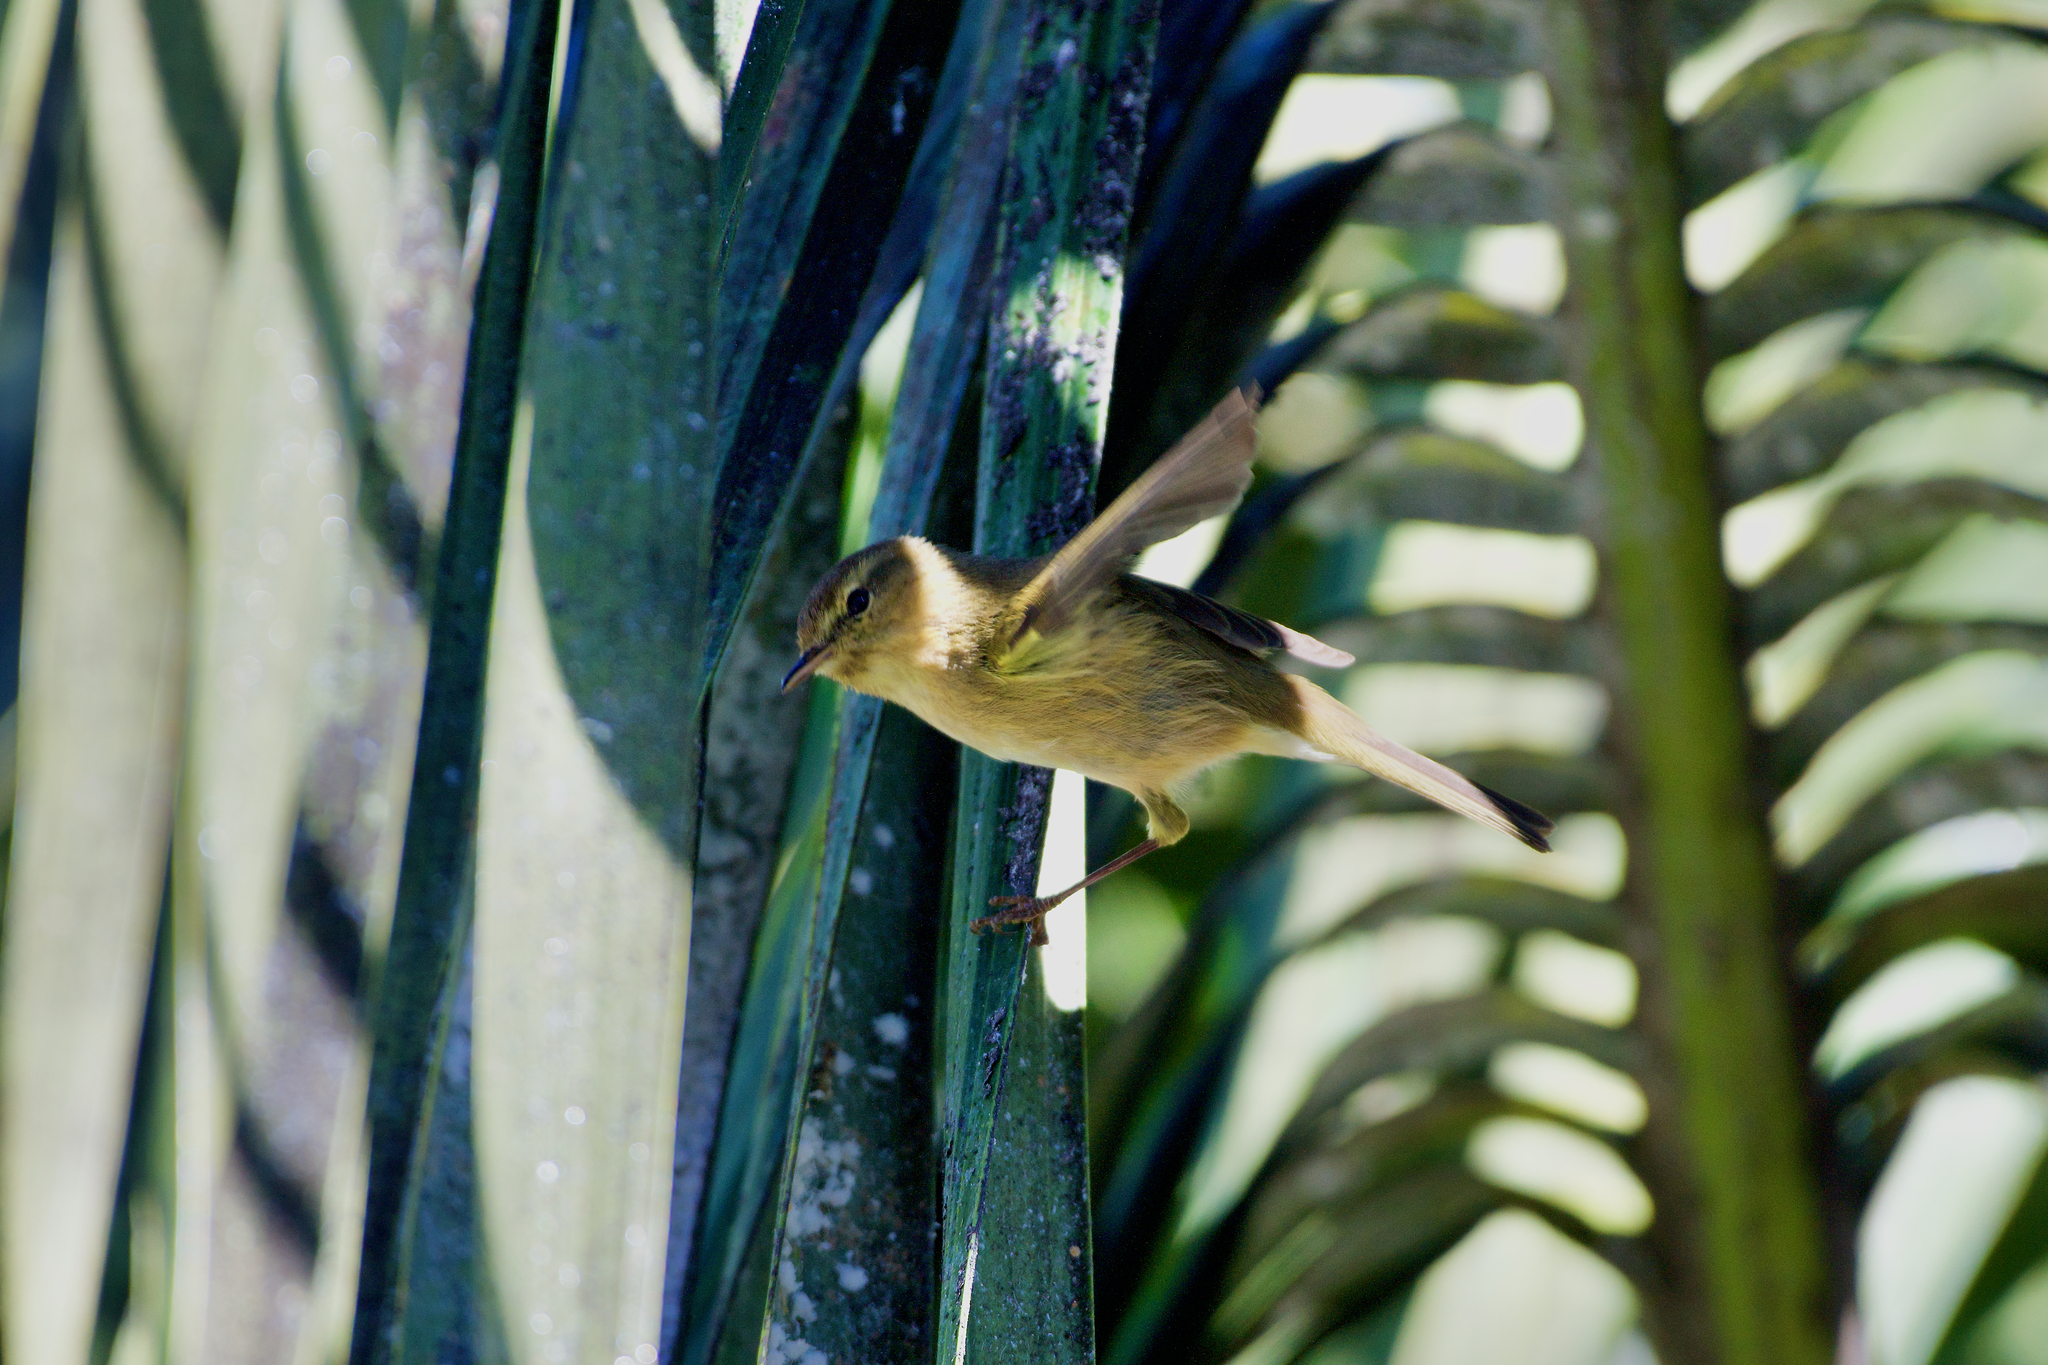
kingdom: Animalia
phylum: Chordata
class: Aves
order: Passeriformes
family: Phylloscopidae
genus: Phylloscopus
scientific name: Phylloscopus canariensis
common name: Canary islands chiffchaff
